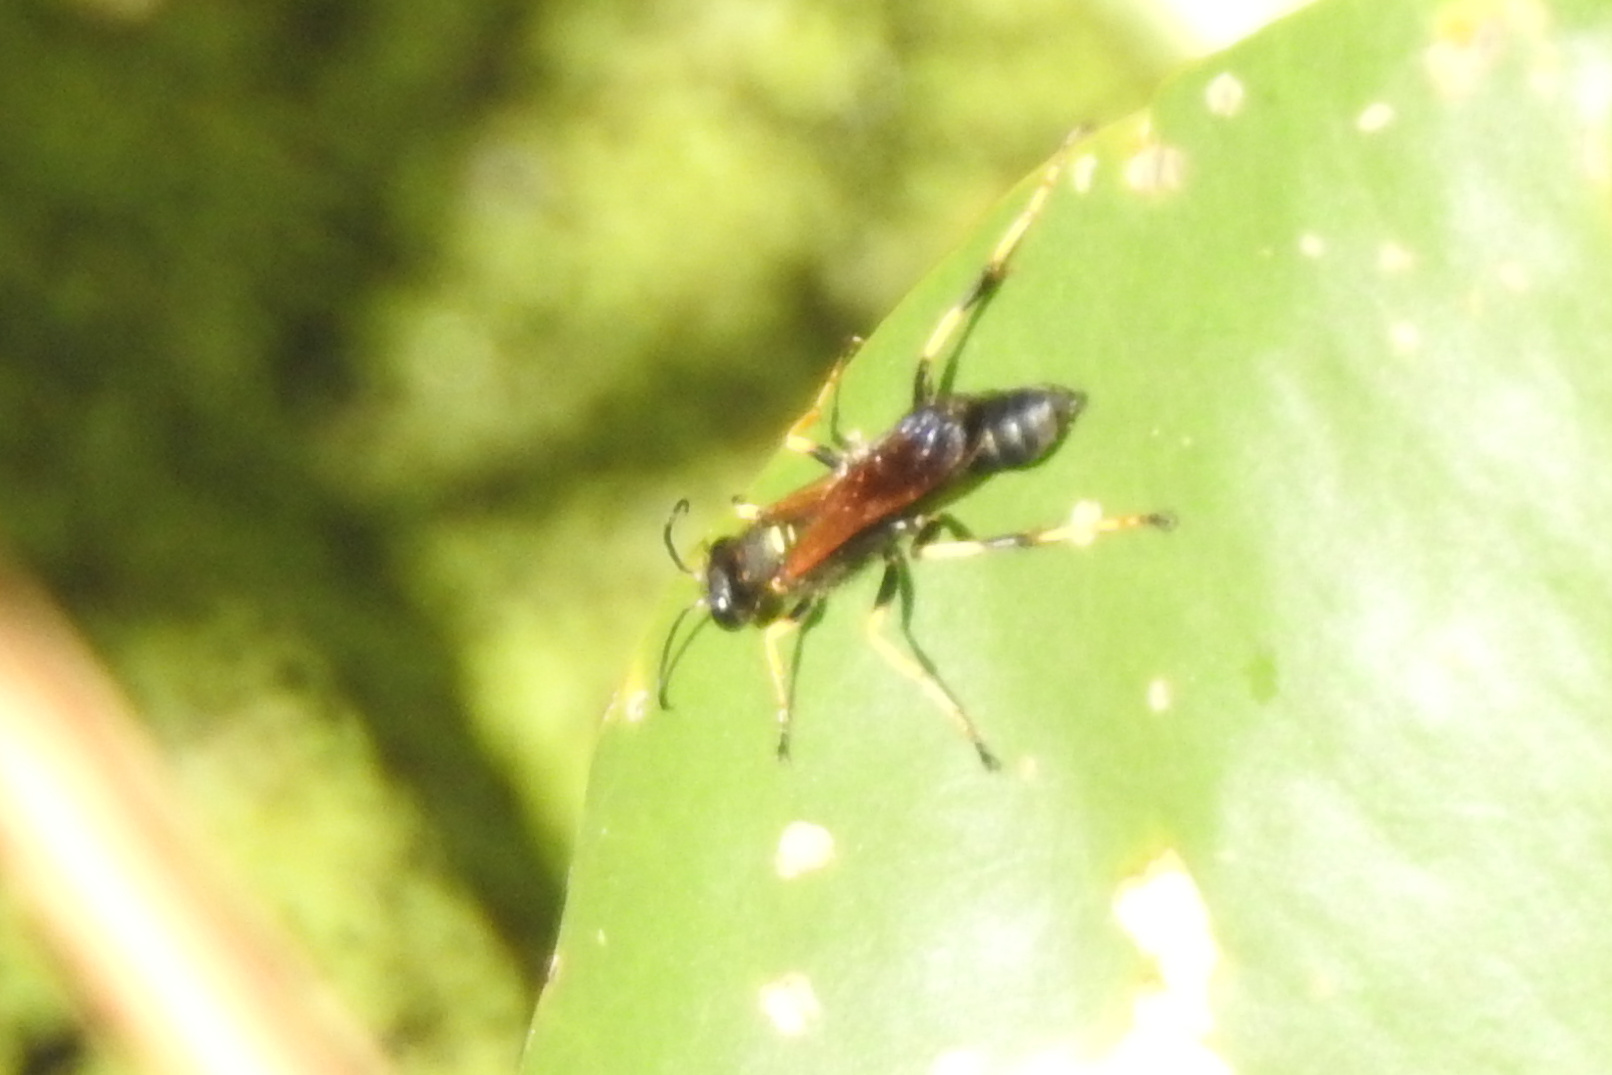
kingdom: Animalia
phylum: Arthropoda
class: Insecta
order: Hymenoptera
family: Sphecidae
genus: Sceliphron
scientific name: Sceliphron caementarium
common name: Mud dauber
